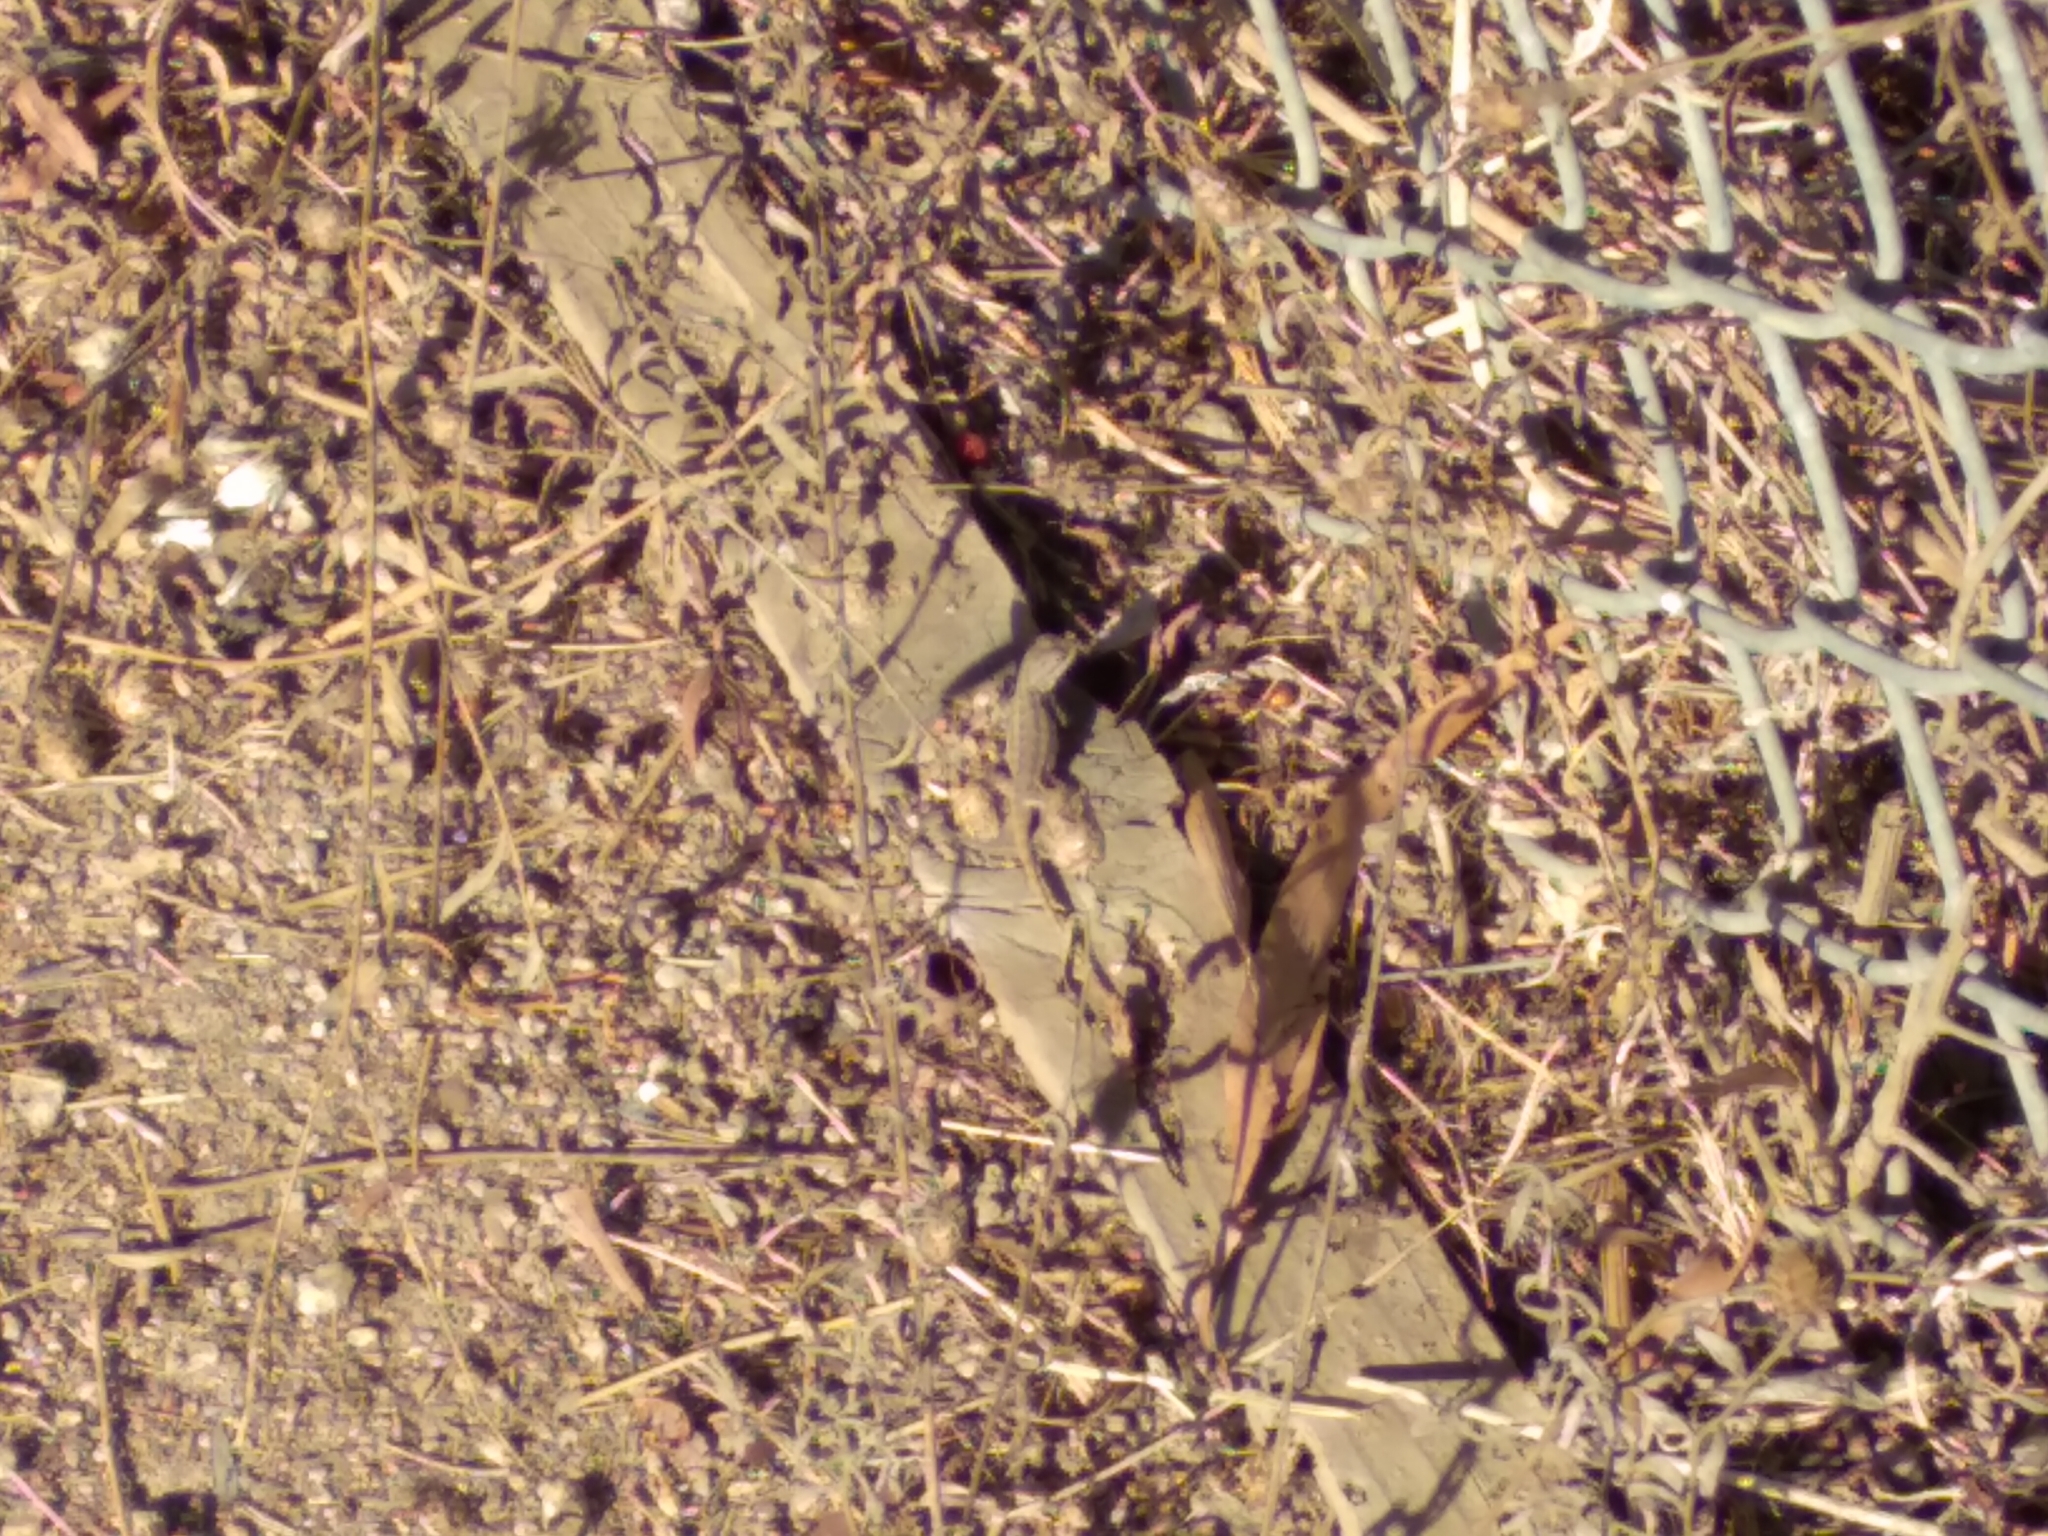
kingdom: Animalia
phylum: Chordata
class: Squamata
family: Phrynosomatidae
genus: Sceloporus
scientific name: Sceloporus occidentalis
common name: Western fence lizard
